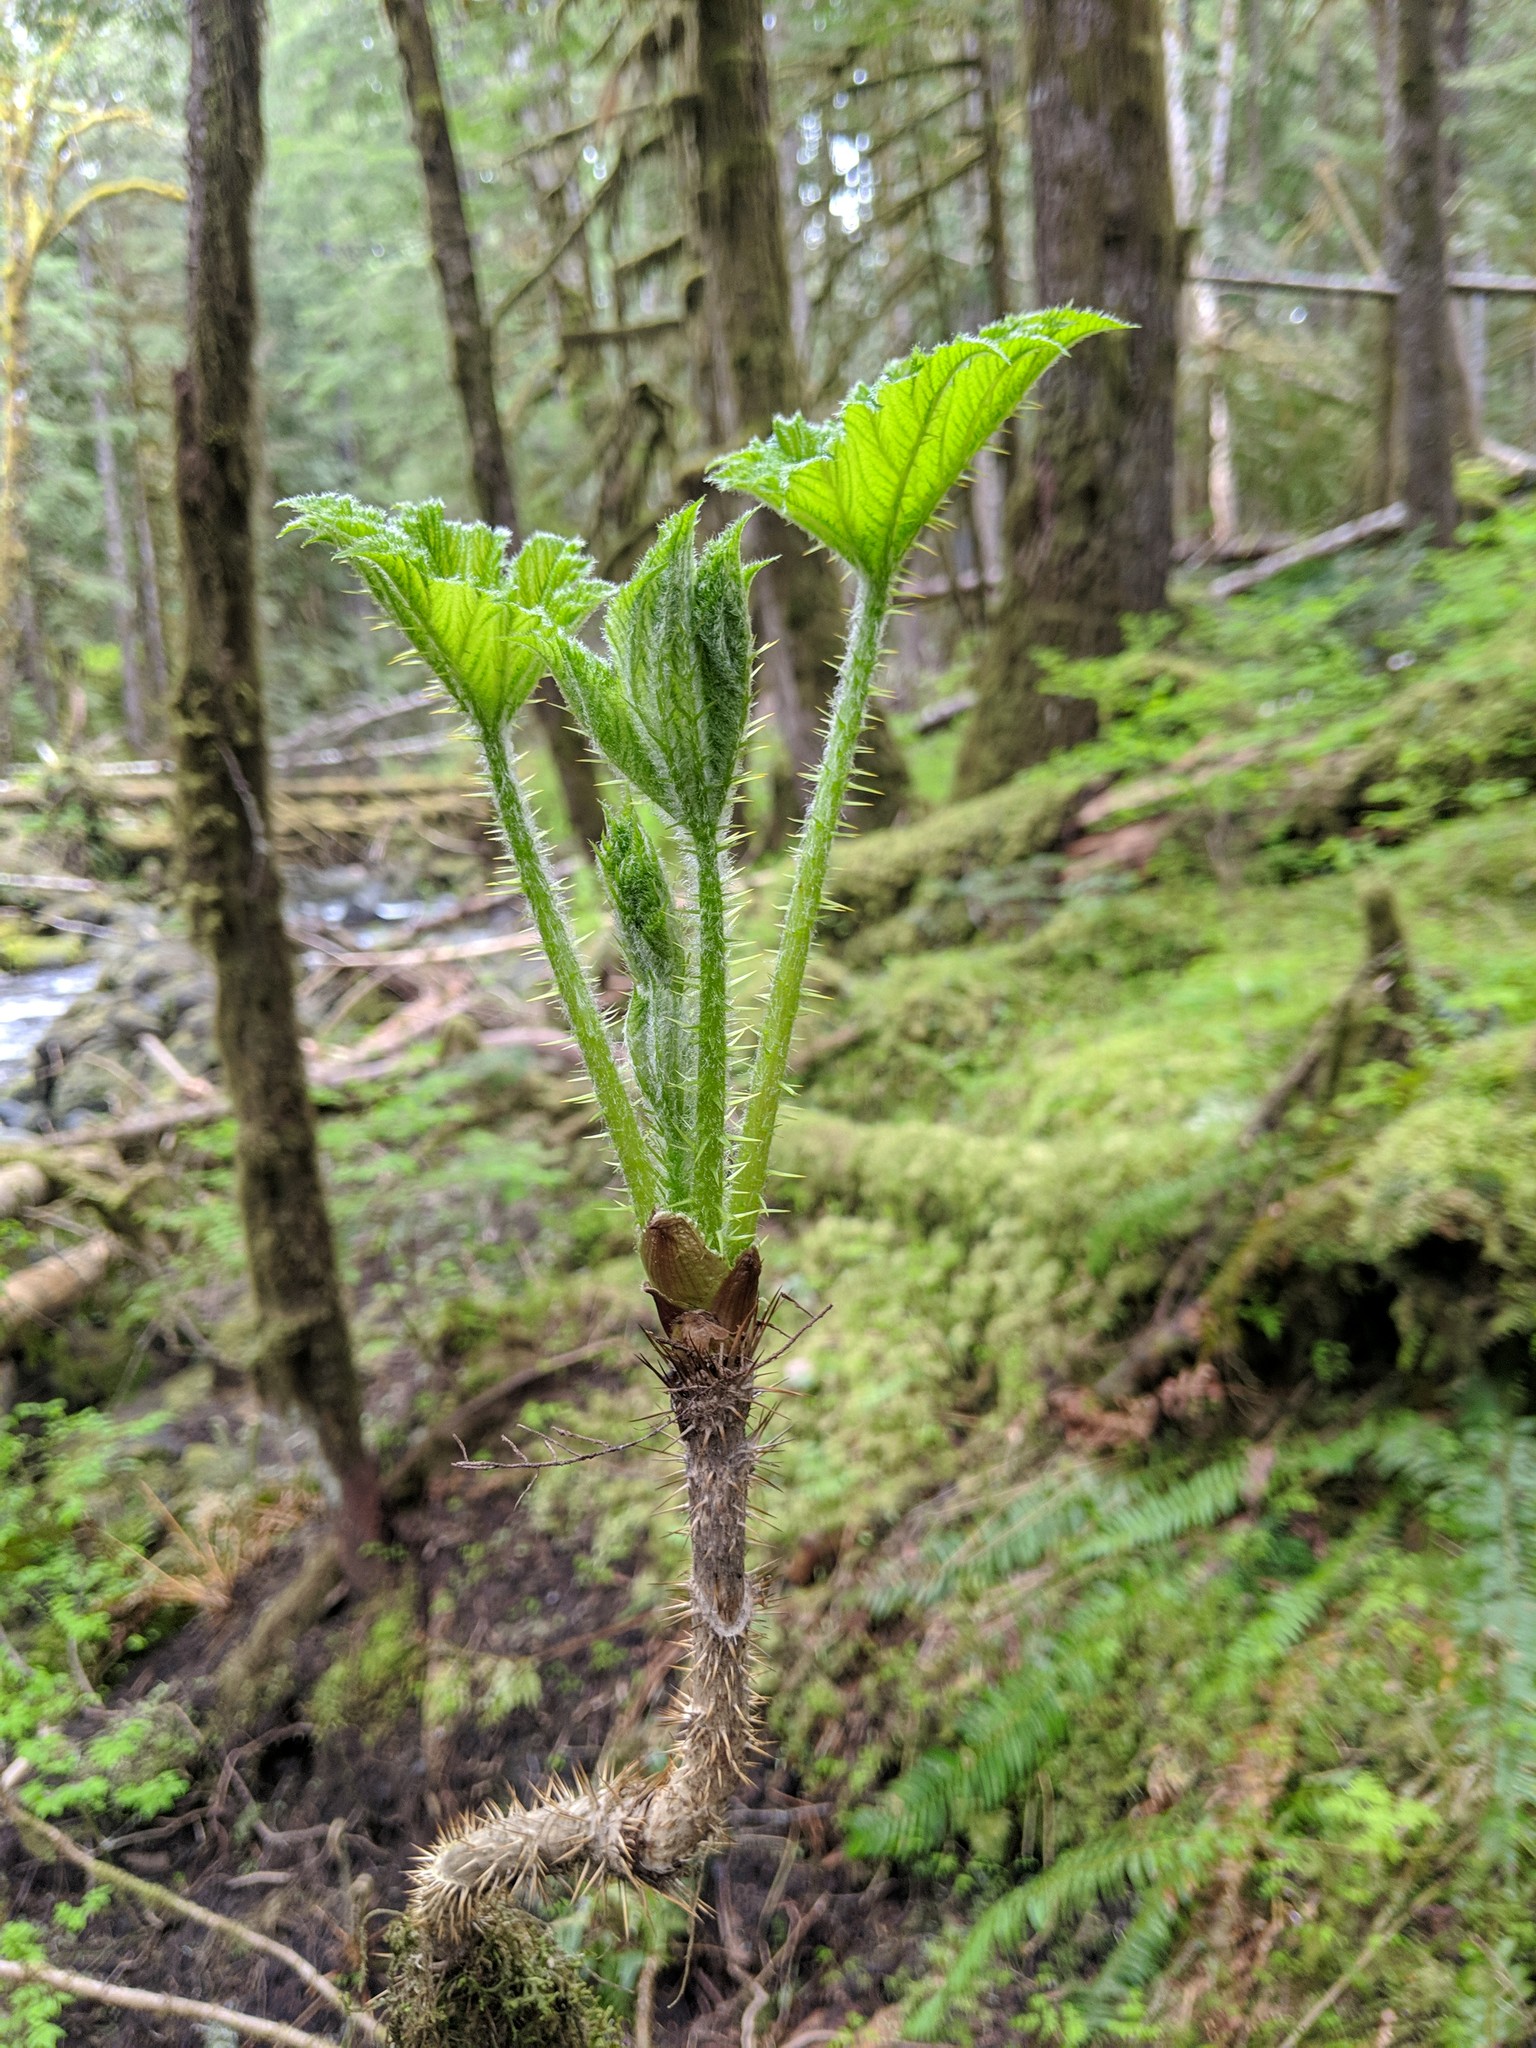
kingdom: Plantae
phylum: Tracheophyta
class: Magnoliopsida
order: Apiales
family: Araliaceae
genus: Oplopanax
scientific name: Oplopanax horridus
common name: Devil's walking-stick
